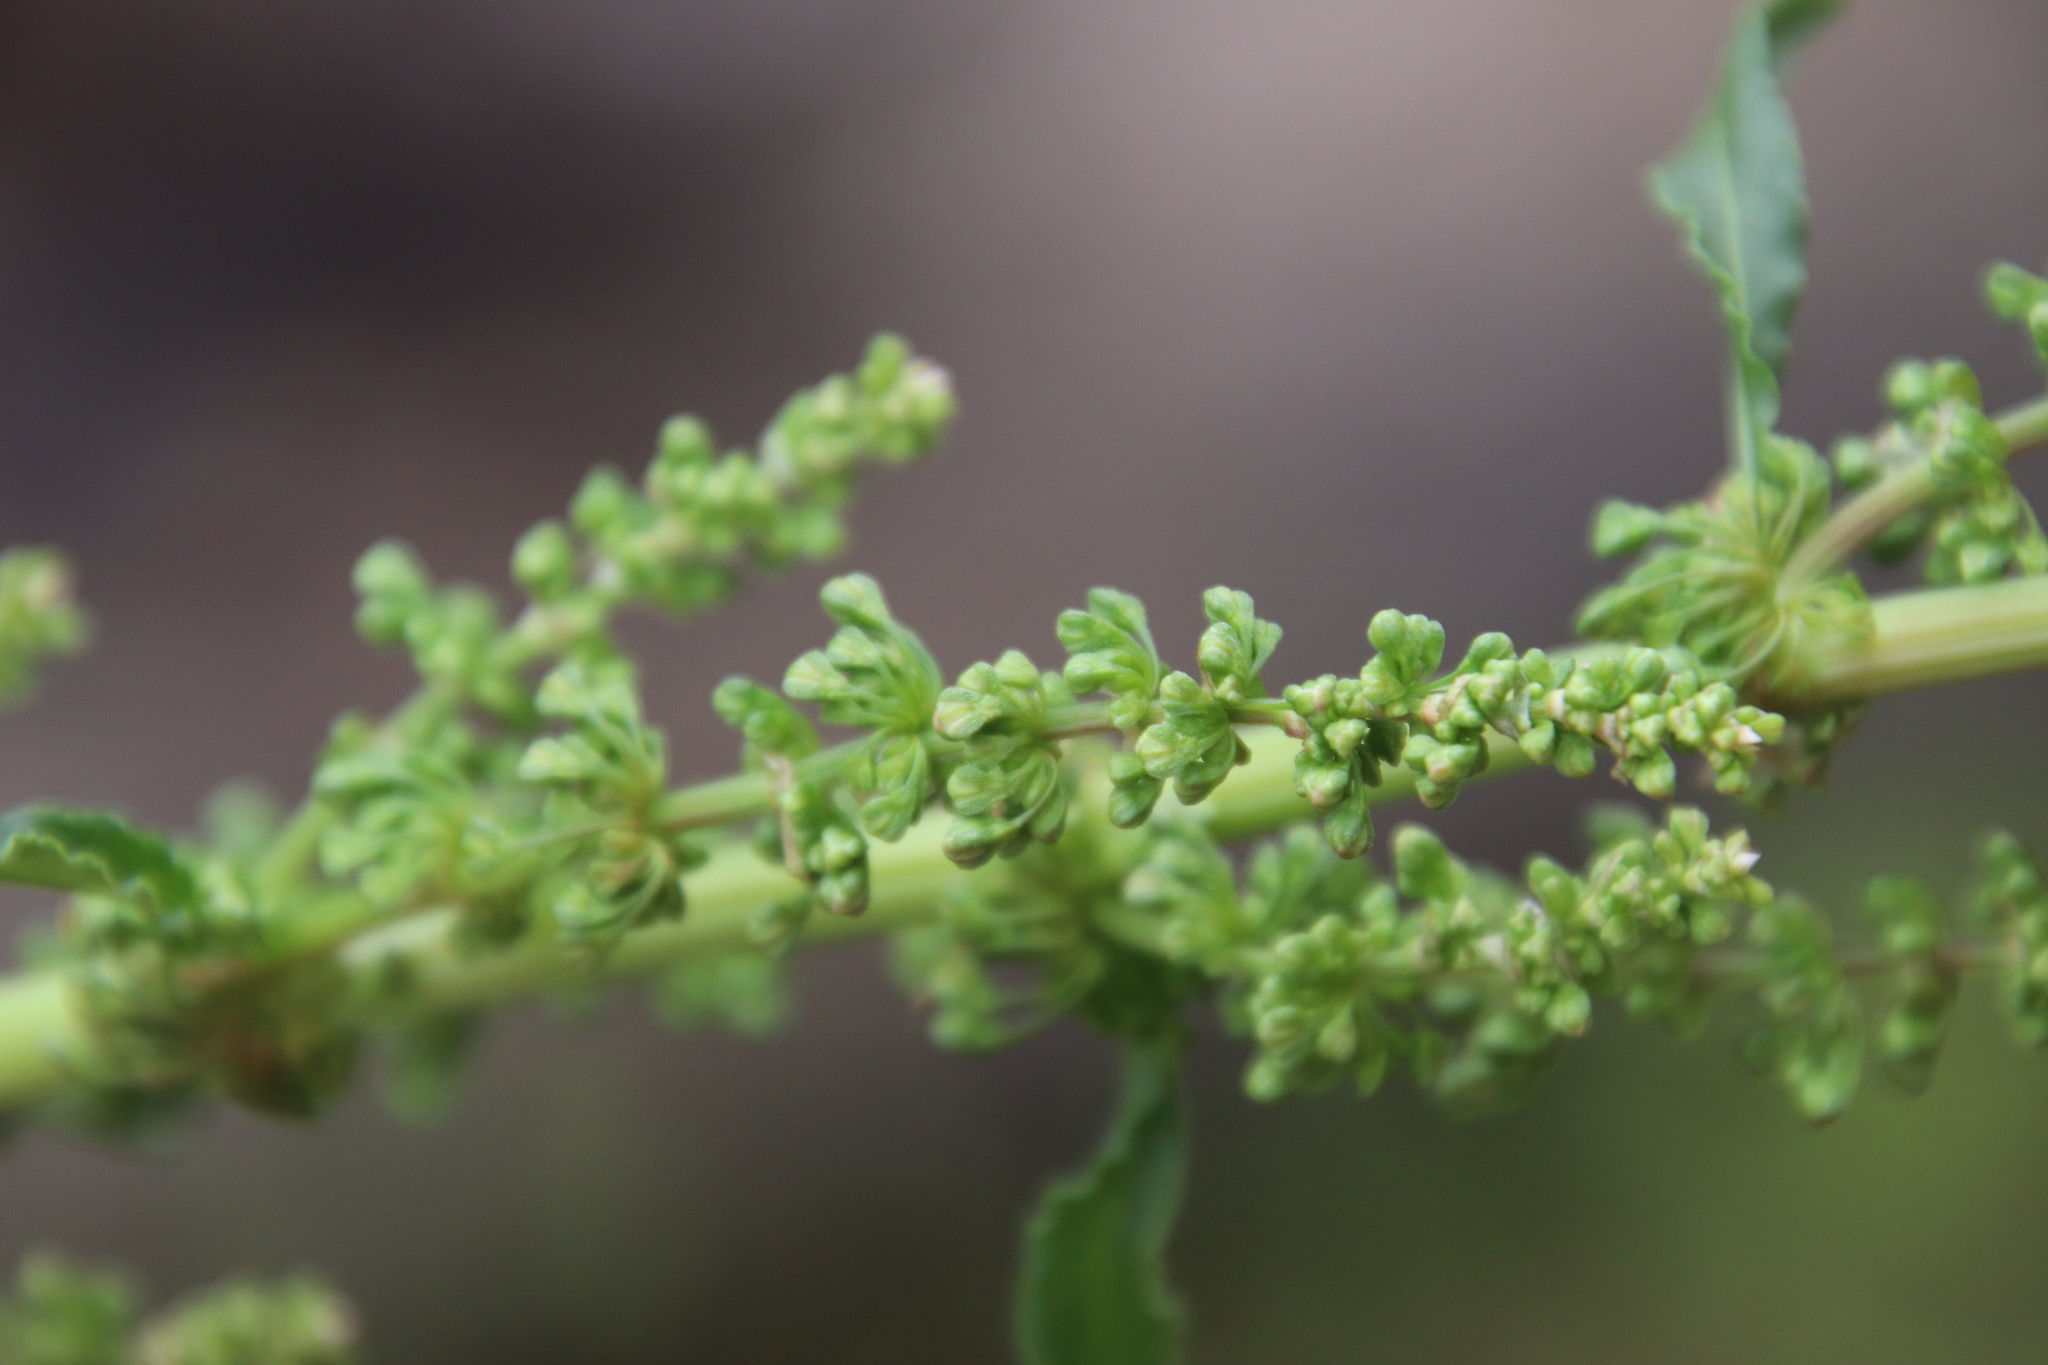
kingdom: Plantae
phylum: Tracheophyta
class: Magnoliopsida
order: Caryophyllales
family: Polygonaceae
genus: Rumex
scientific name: Rumex crispus
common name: Curled dock
